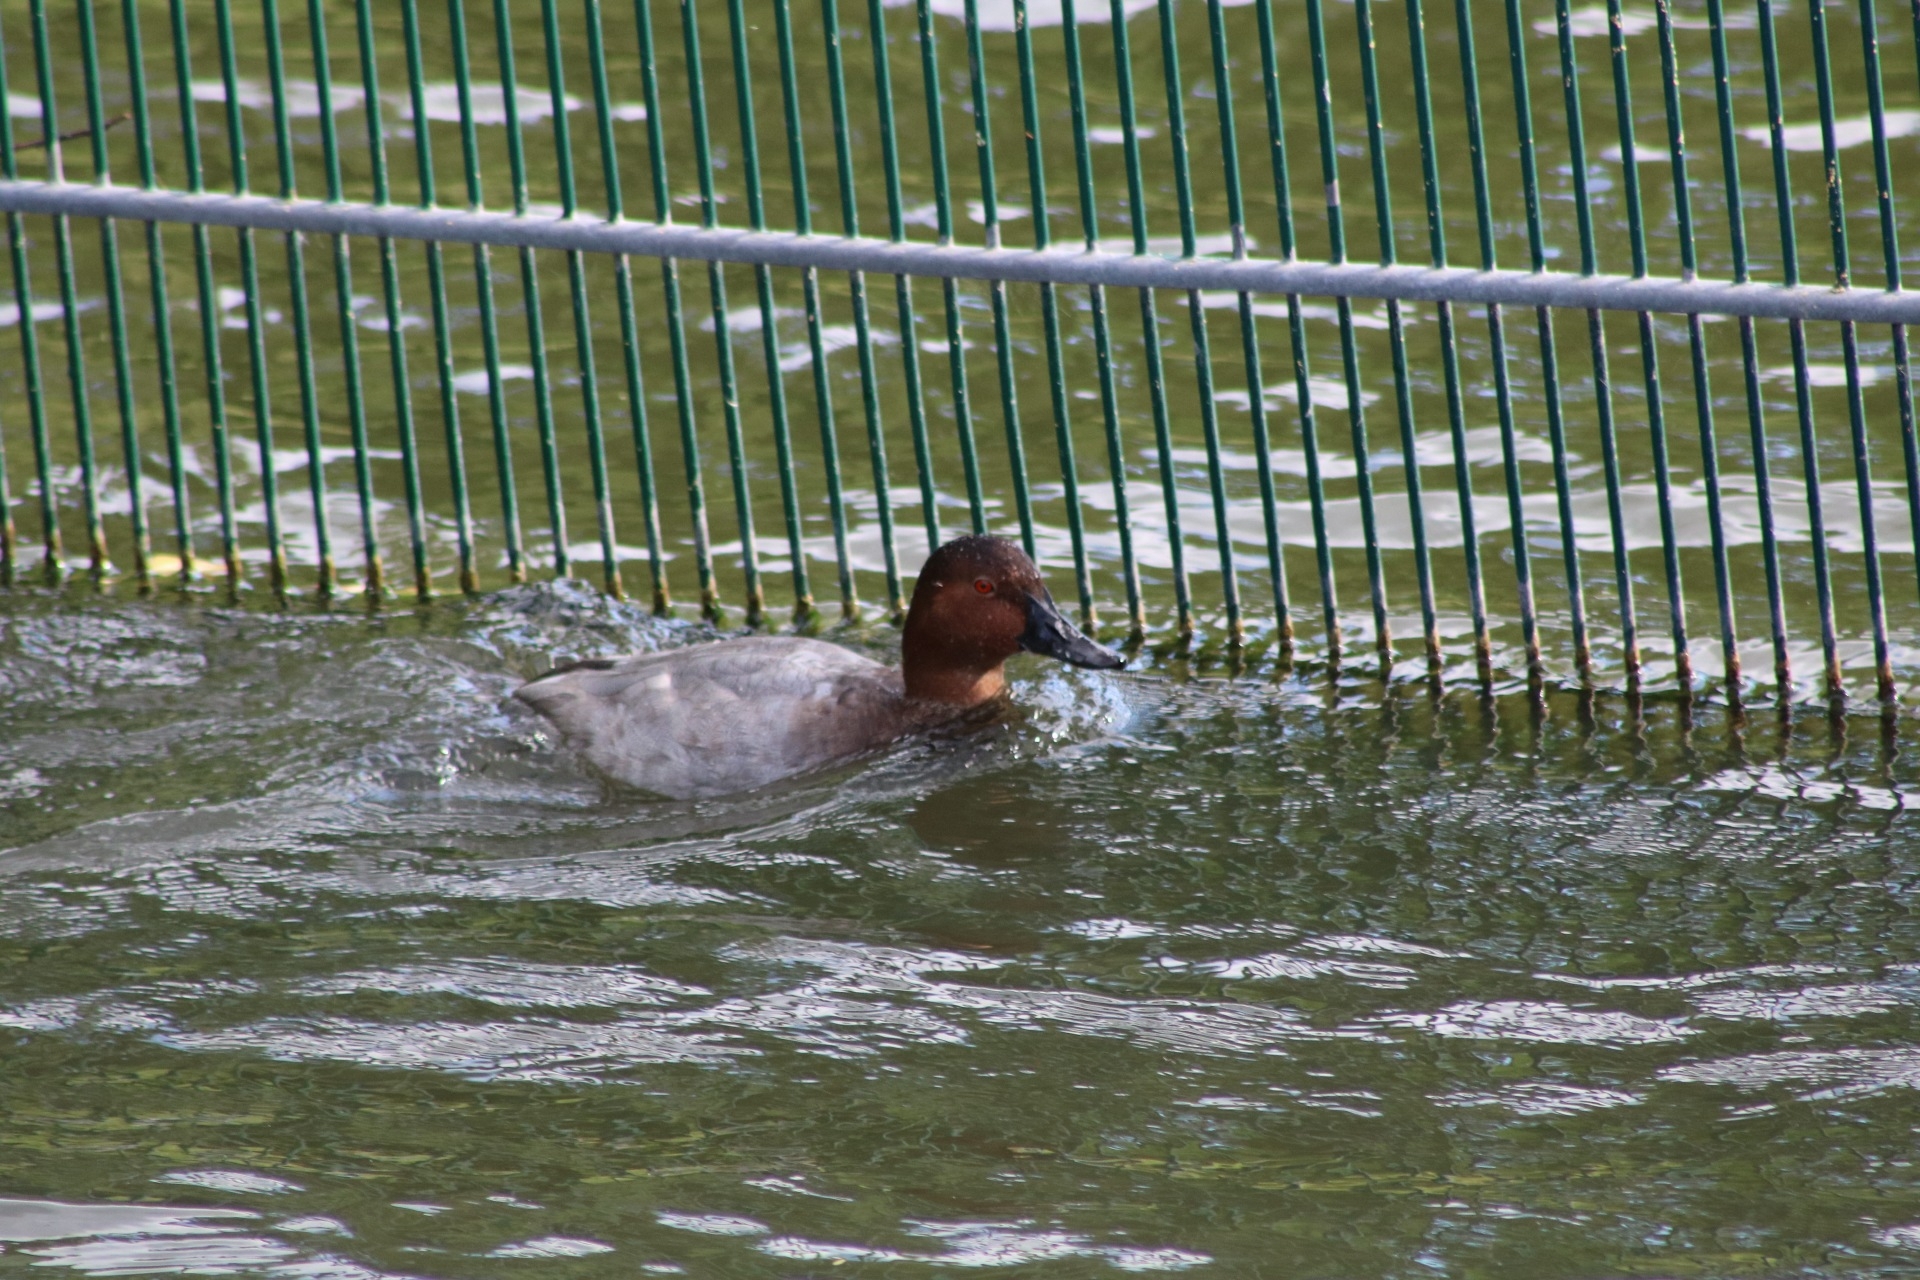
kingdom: Animalia
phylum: Chordata
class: Aves
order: Anseriformes
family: Anatidae
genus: Aythya
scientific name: Aythya ferina
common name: Common pochard
